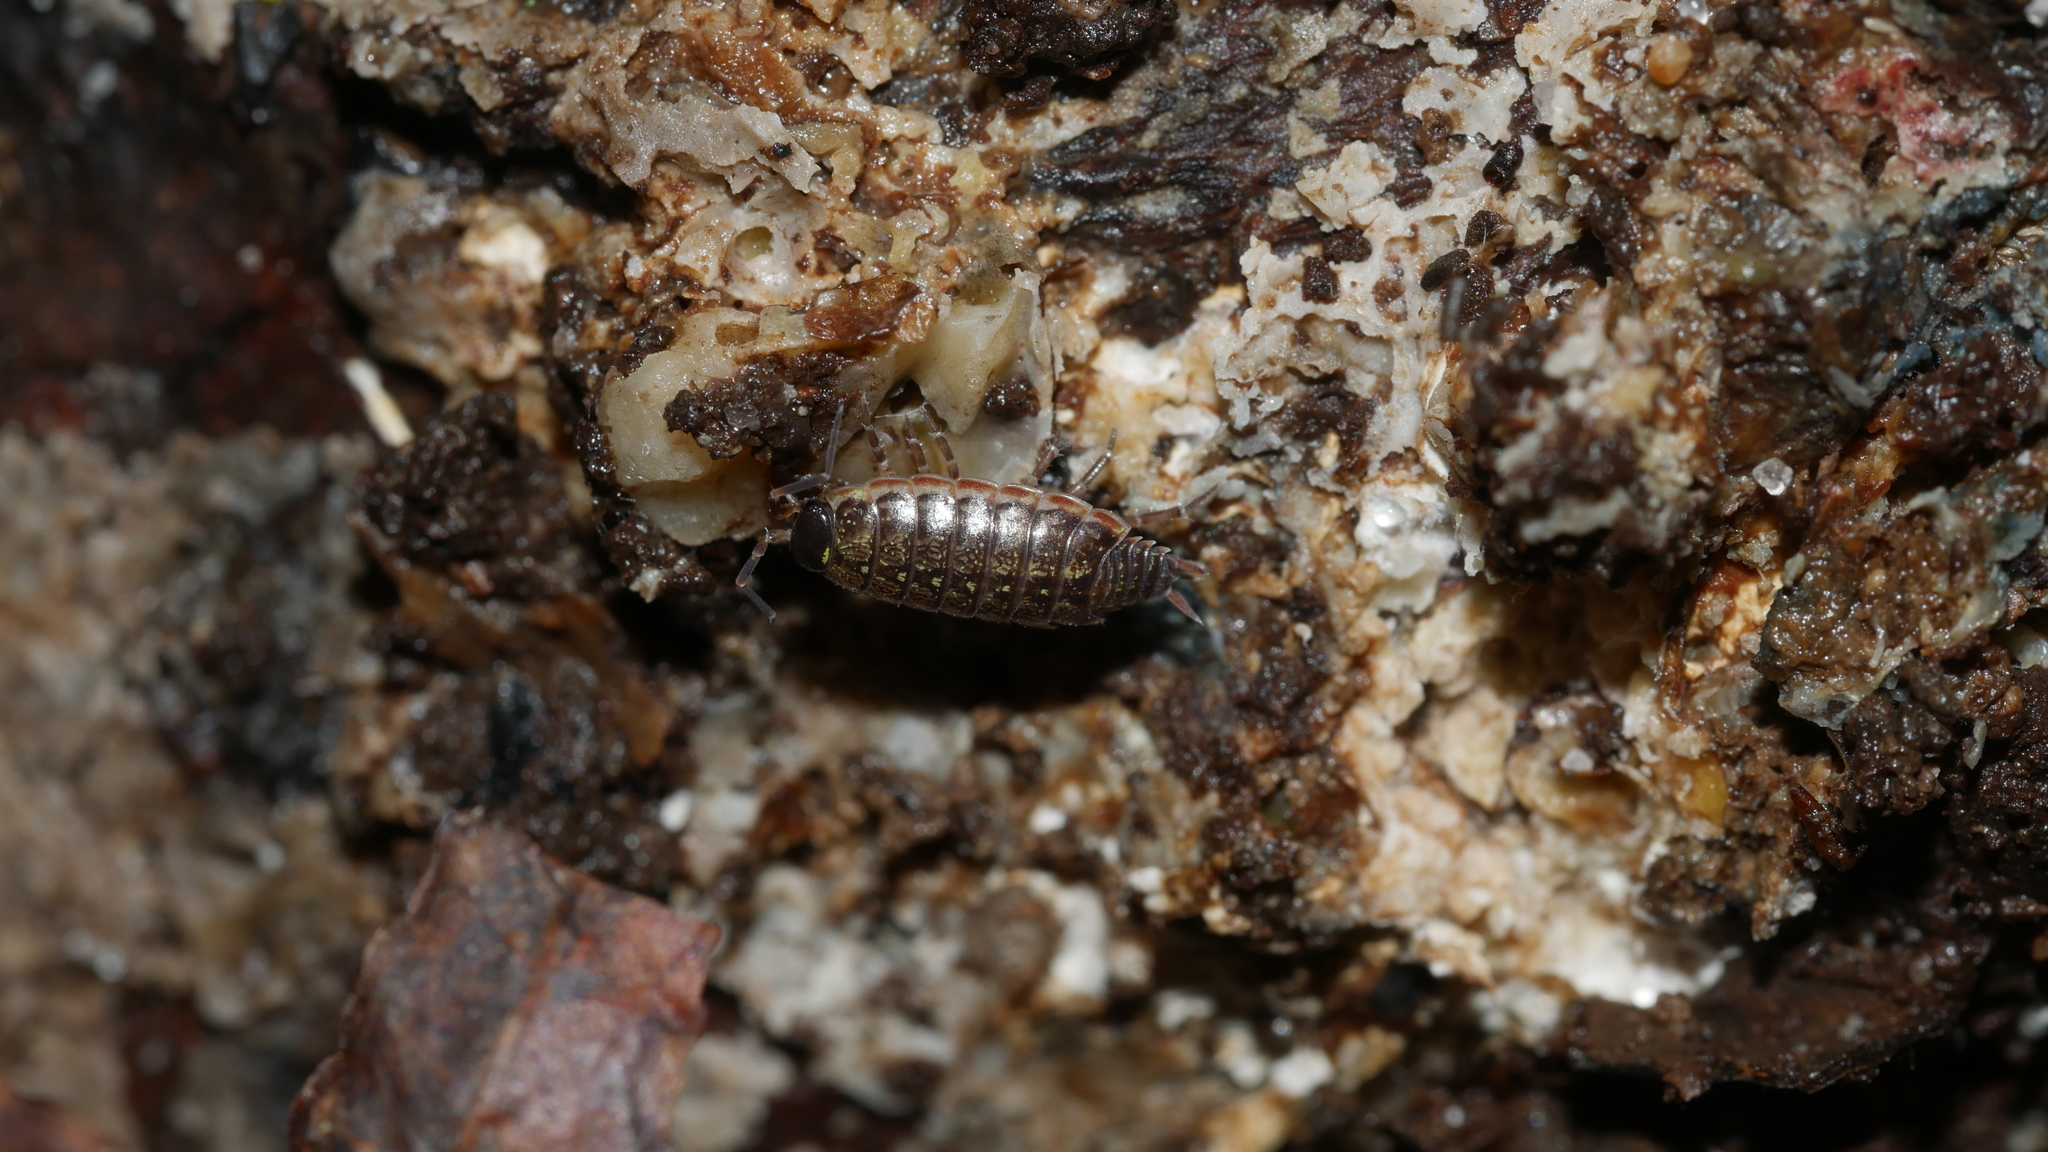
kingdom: Animalia
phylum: Arthropoda
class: Malacostraca
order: Isopoda
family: Philosciidae
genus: Philoscia
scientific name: Philoscia muscorum
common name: Common striped woodlouse
